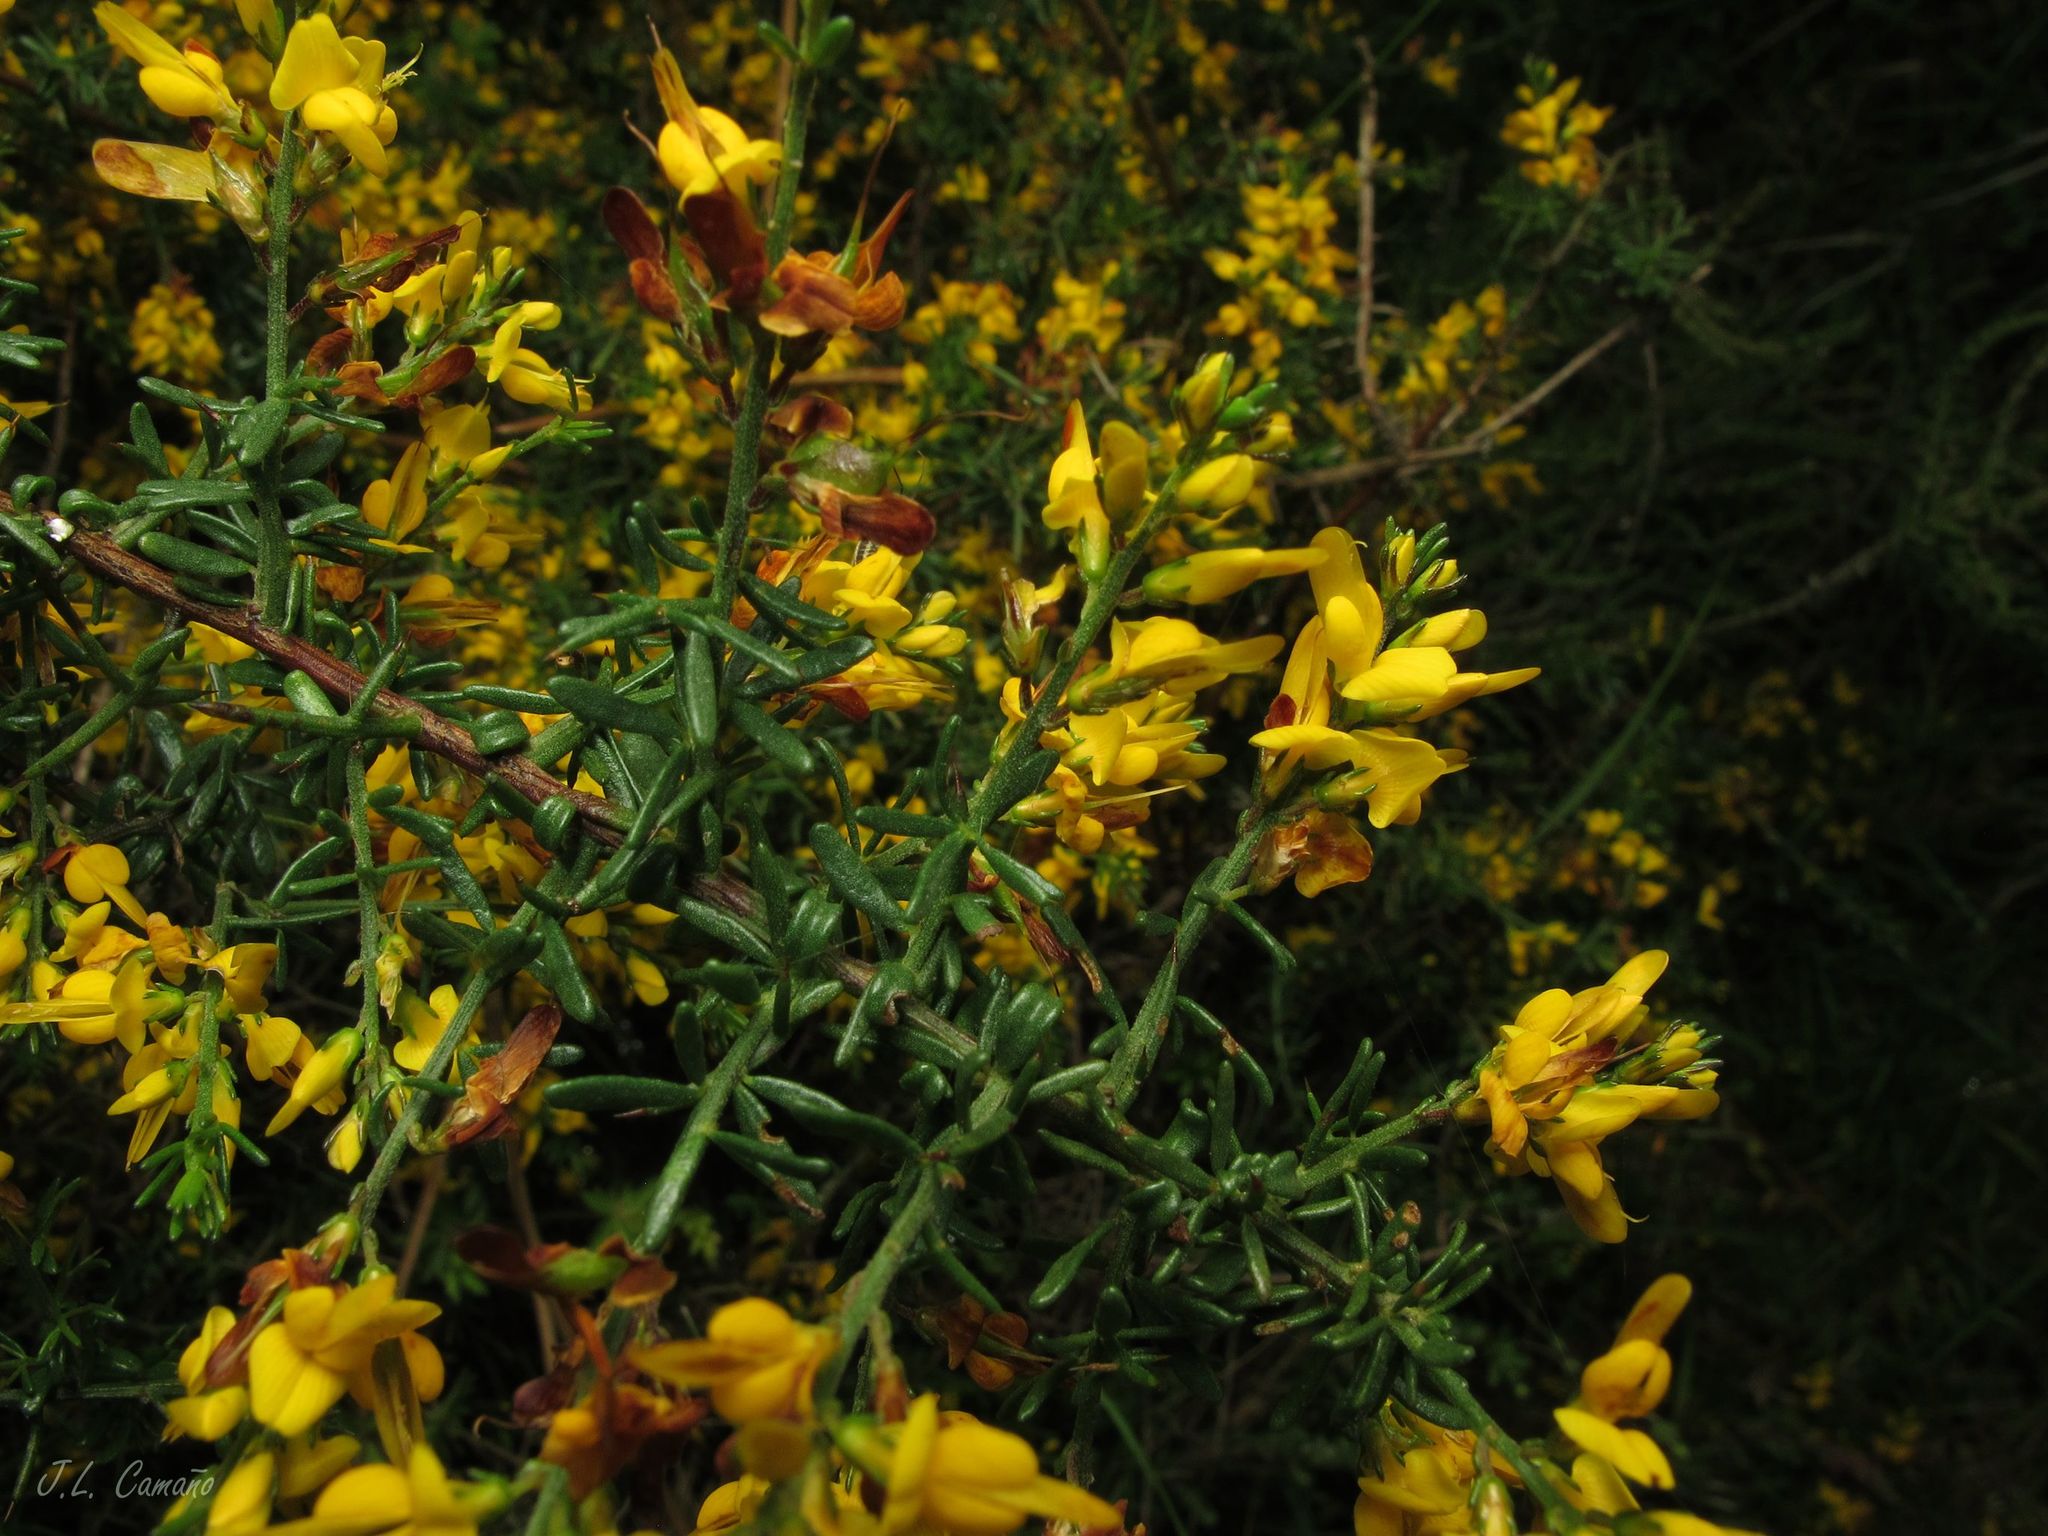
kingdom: Plantae
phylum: Tracheophyta
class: Magnoliopsida
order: Fabales
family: Fabaceae
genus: Genista
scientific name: Genista triacanthos
